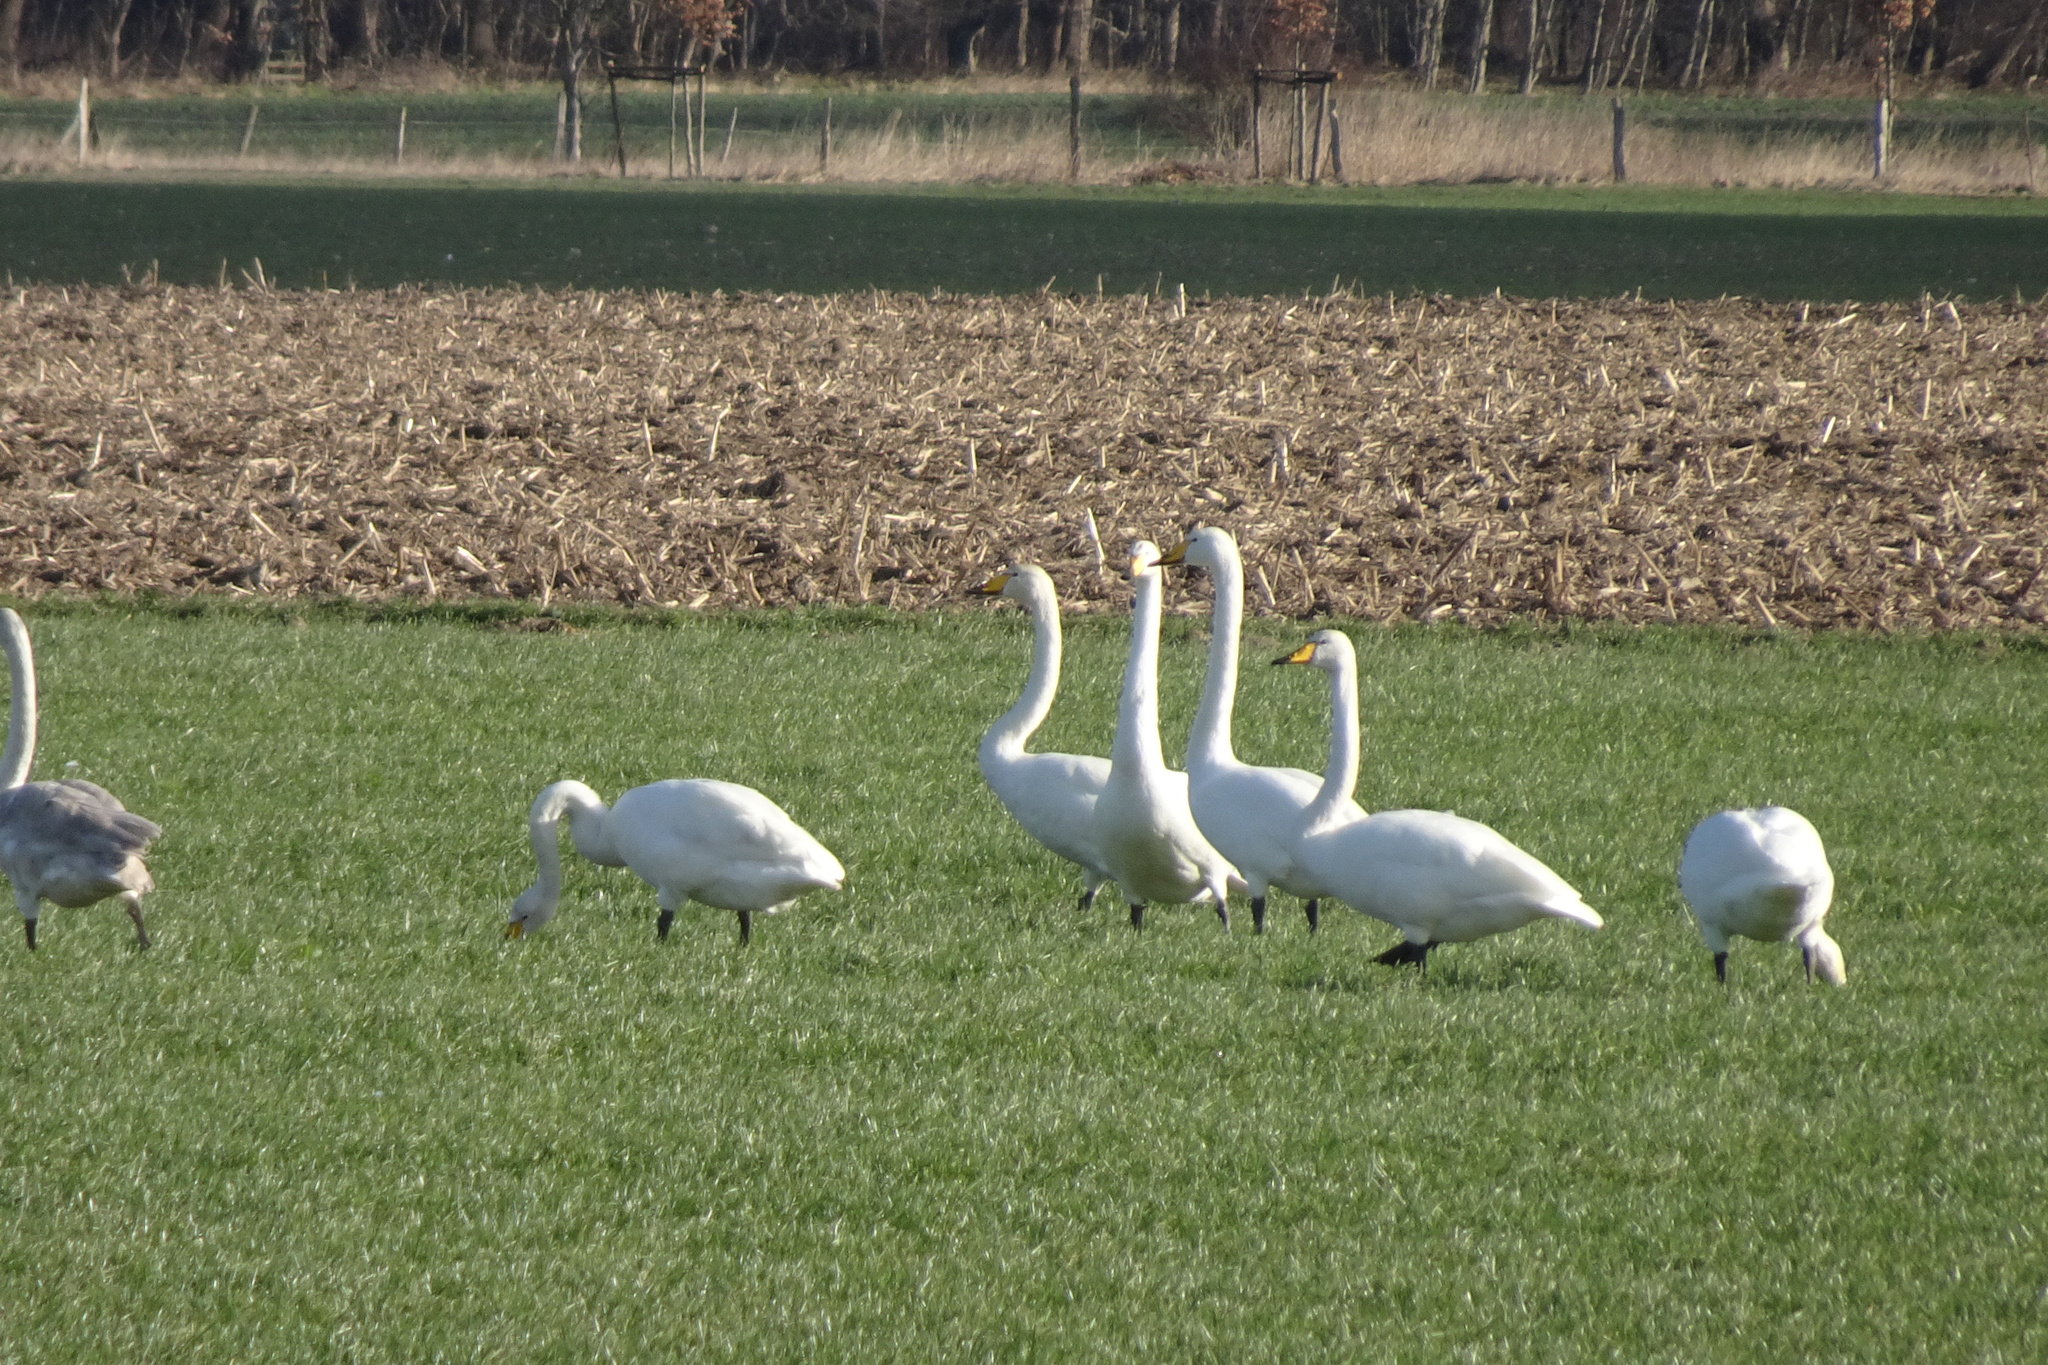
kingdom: Animalia
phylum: Chordata
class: Aves
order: Anseriformes
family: Anatidae
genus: Cygnus
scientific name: Cygnus cygnus
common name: Whooper swan
